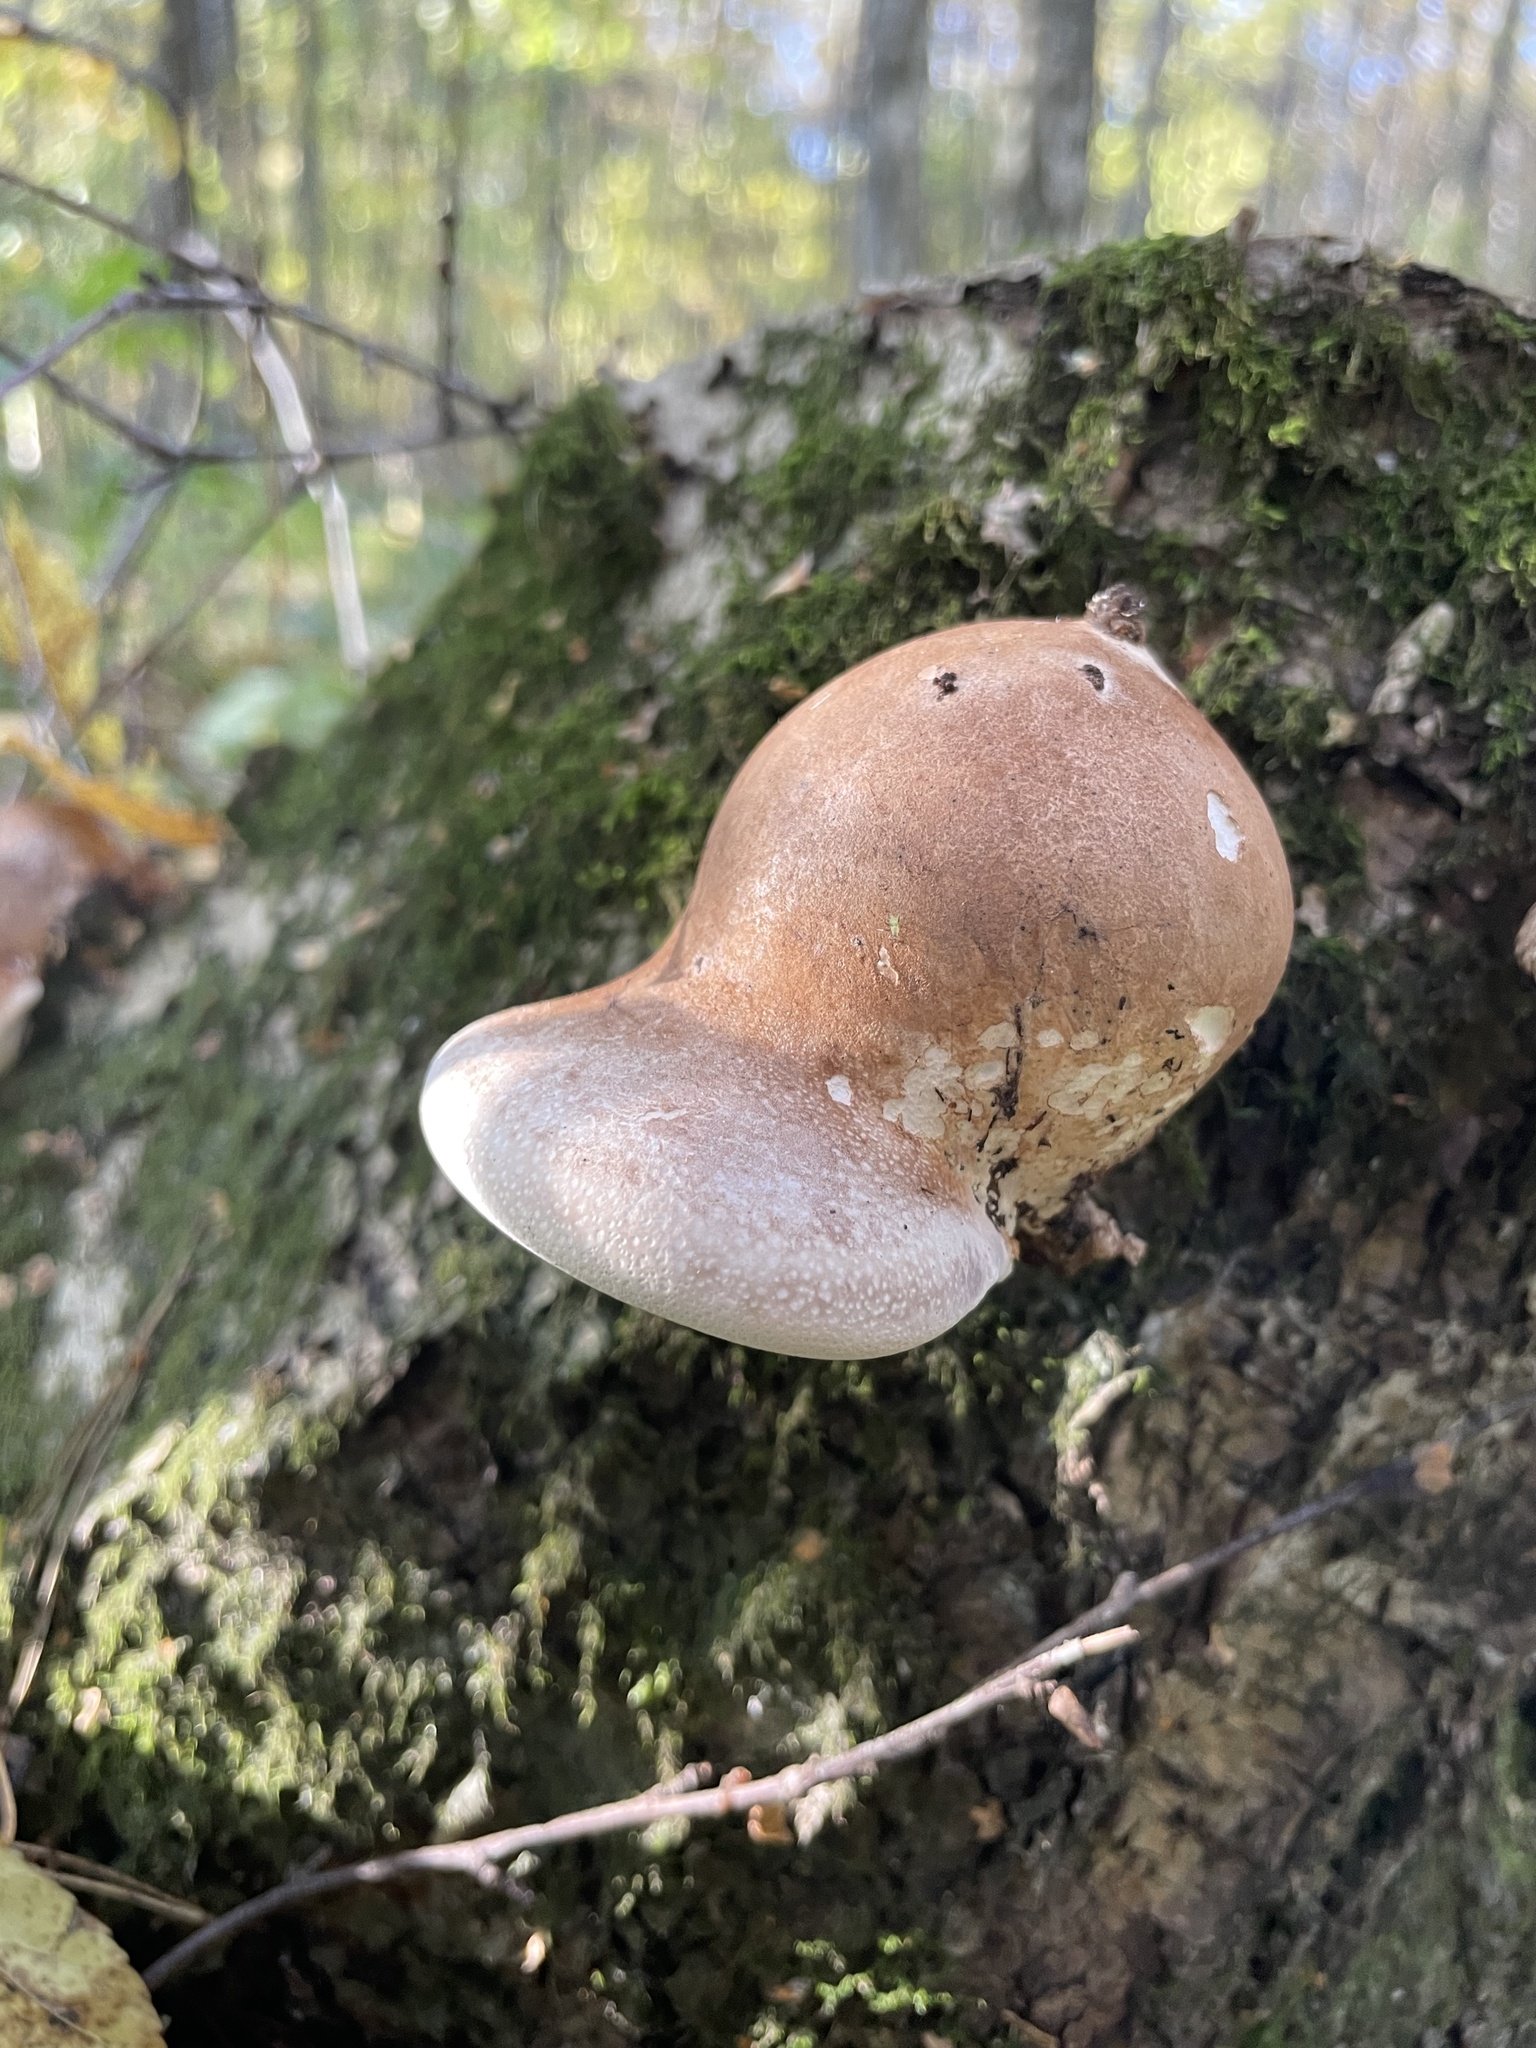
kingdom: Fungi
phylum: Basidiomycota
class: Agaricomycetes
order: Polyporales
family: Fomitopsidaceae
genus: Fomitopsis
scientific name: Fomitopsis betulina
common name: Birch polypore
